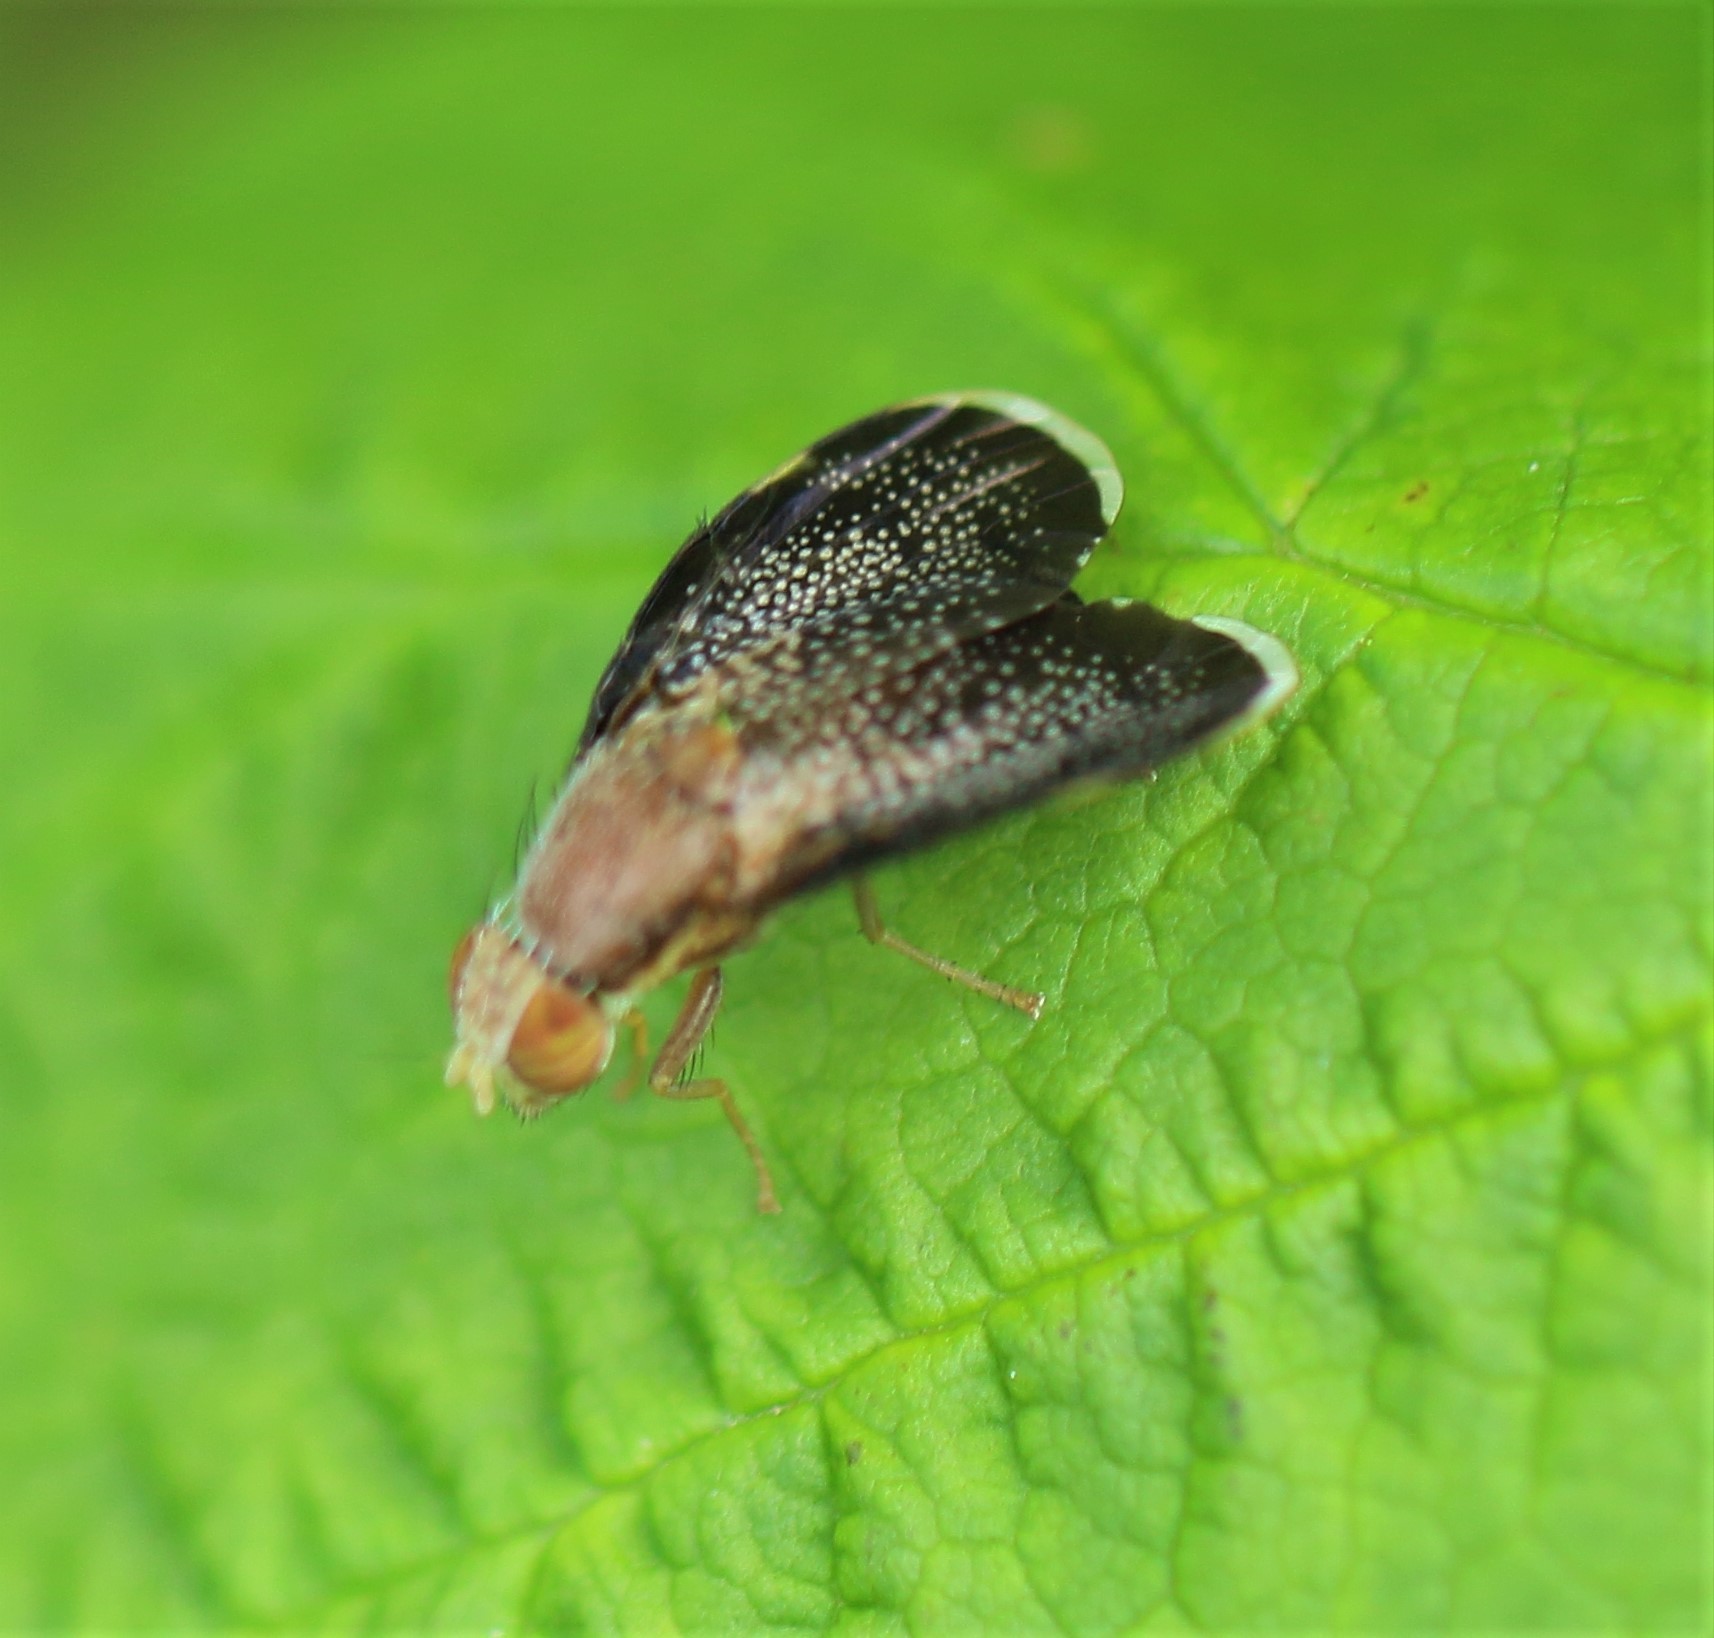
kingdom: Animalia
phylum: Arthropoda
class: Insecta
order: Diptera
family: Tephritidae
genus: Eutreta
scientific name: Eutreta novaeboracensis
